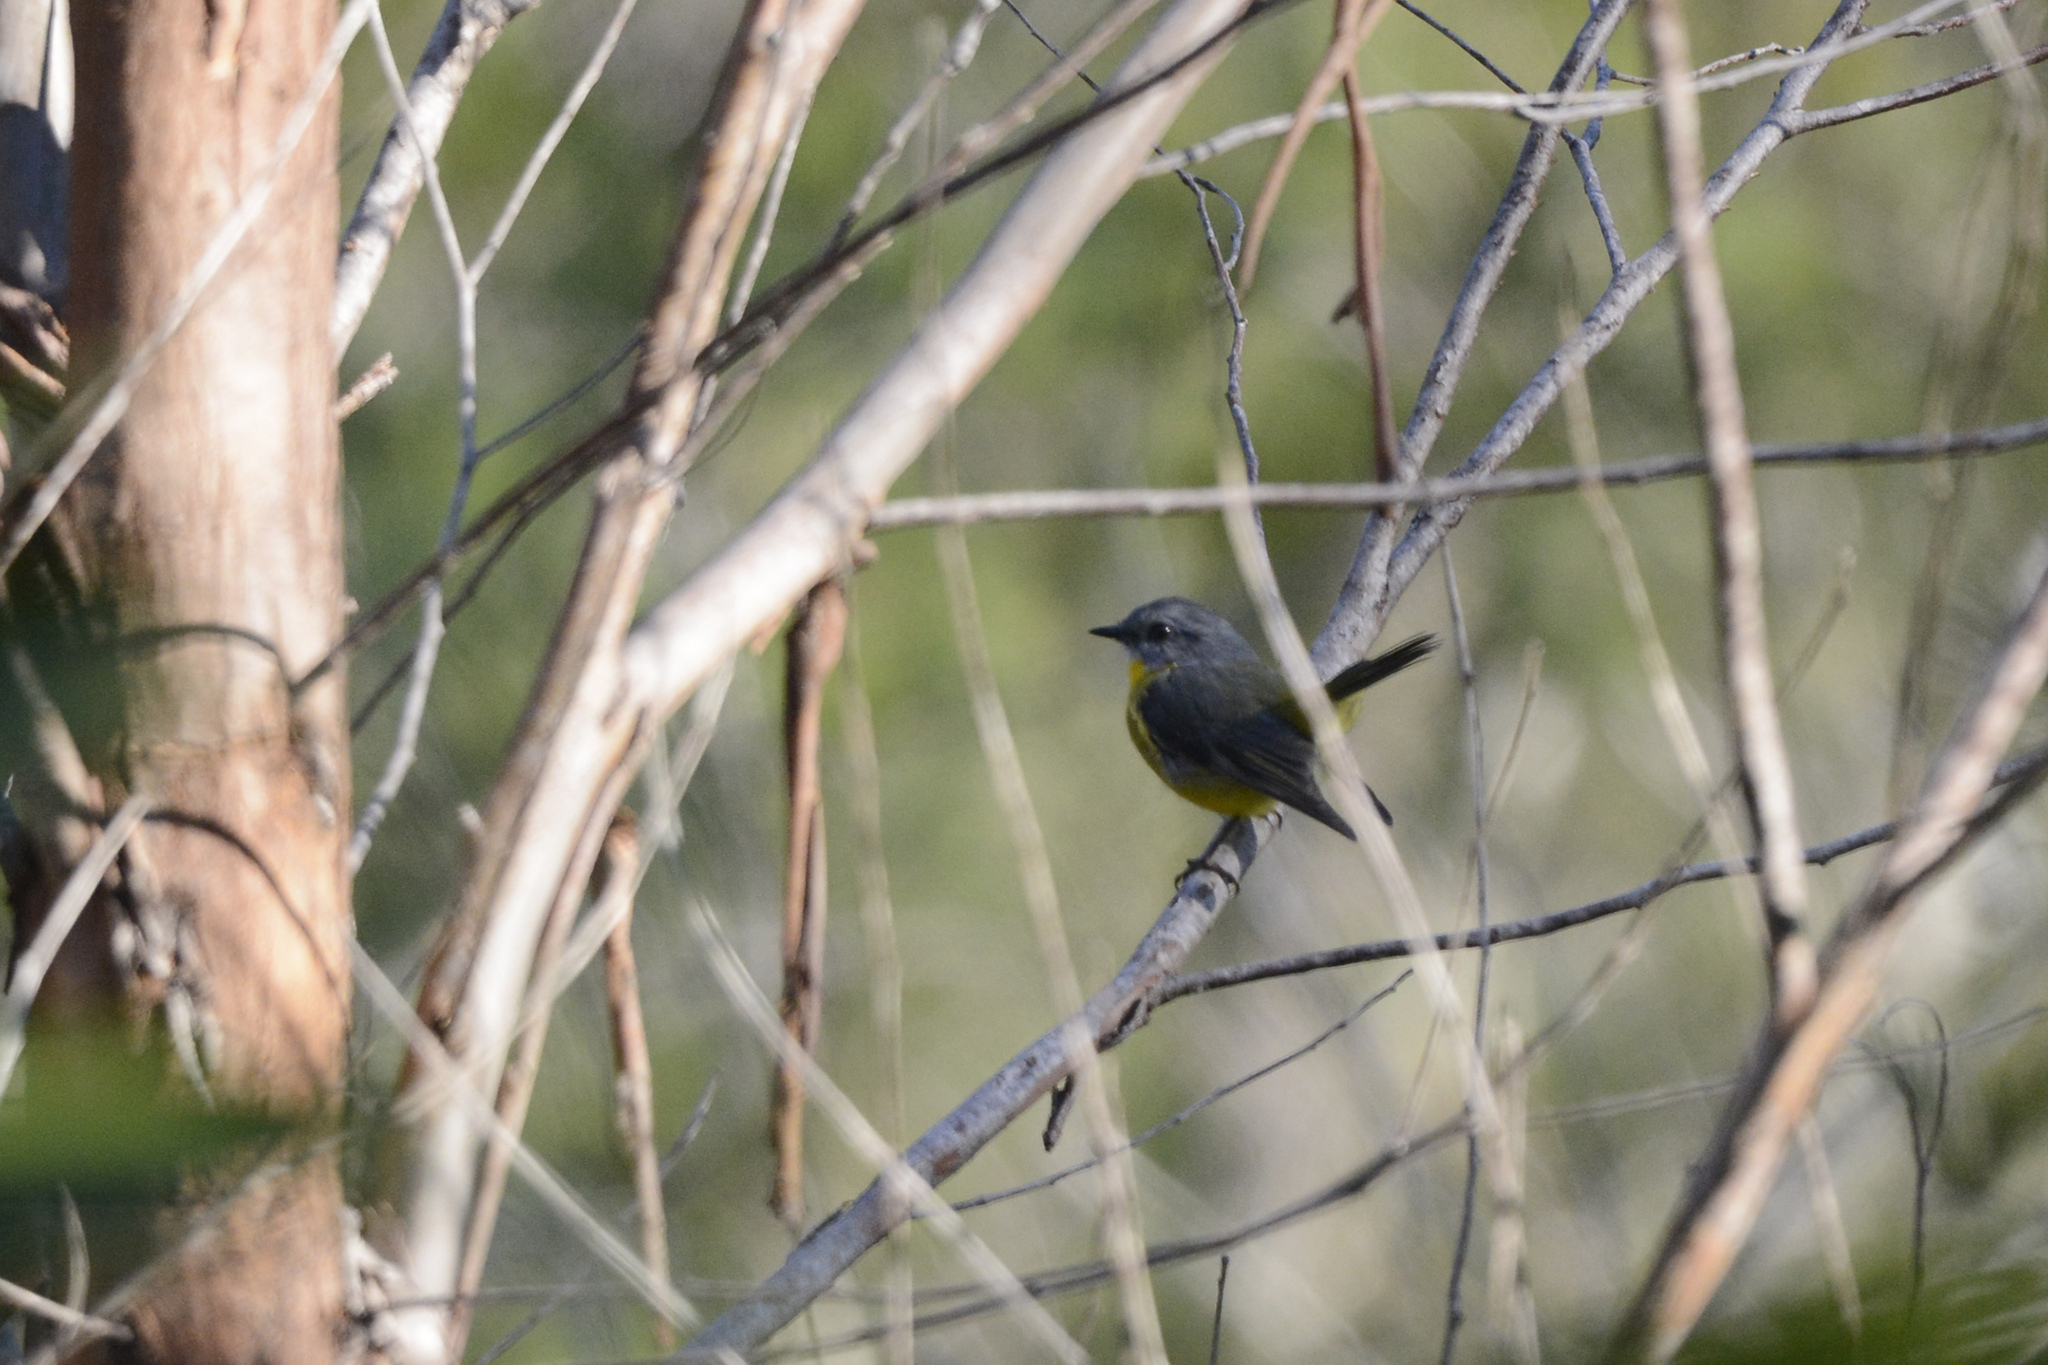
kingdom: Animalia
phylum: Chordata
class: Aves
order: Passeriformes
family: Petroicidae
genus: Eopsaltria
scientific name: Eopsaltria australis
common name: Eastern yellow robin
